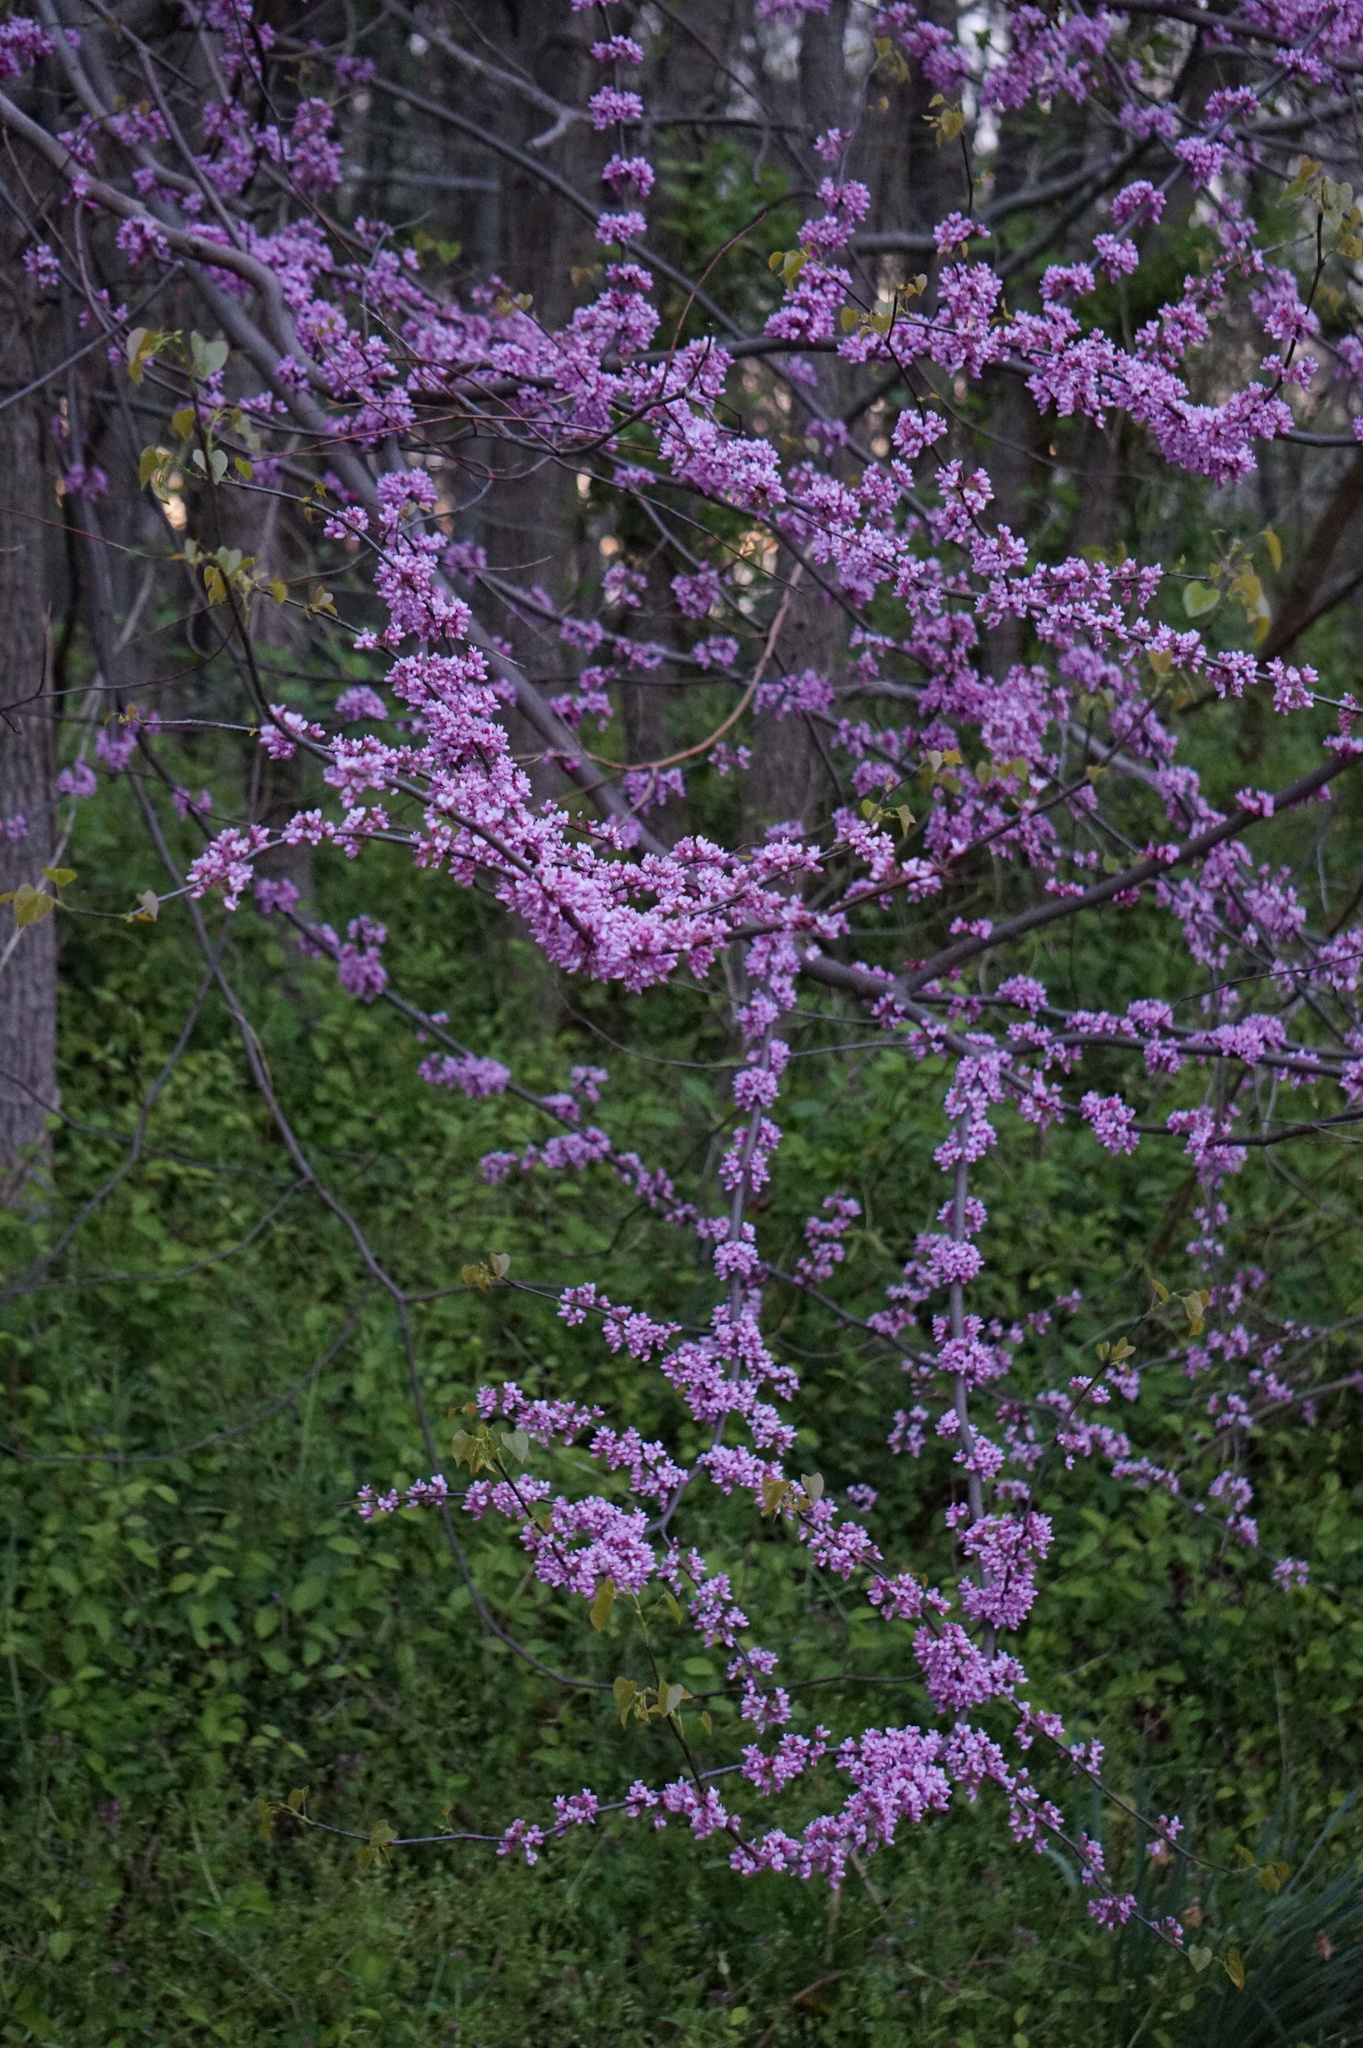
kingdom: Plantae
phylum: Tracheophyta
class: Magnoliopsida
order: Fabales
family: Fabaceae
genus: Cercis
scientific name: Cercis canadensis
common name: Eastern redbud
